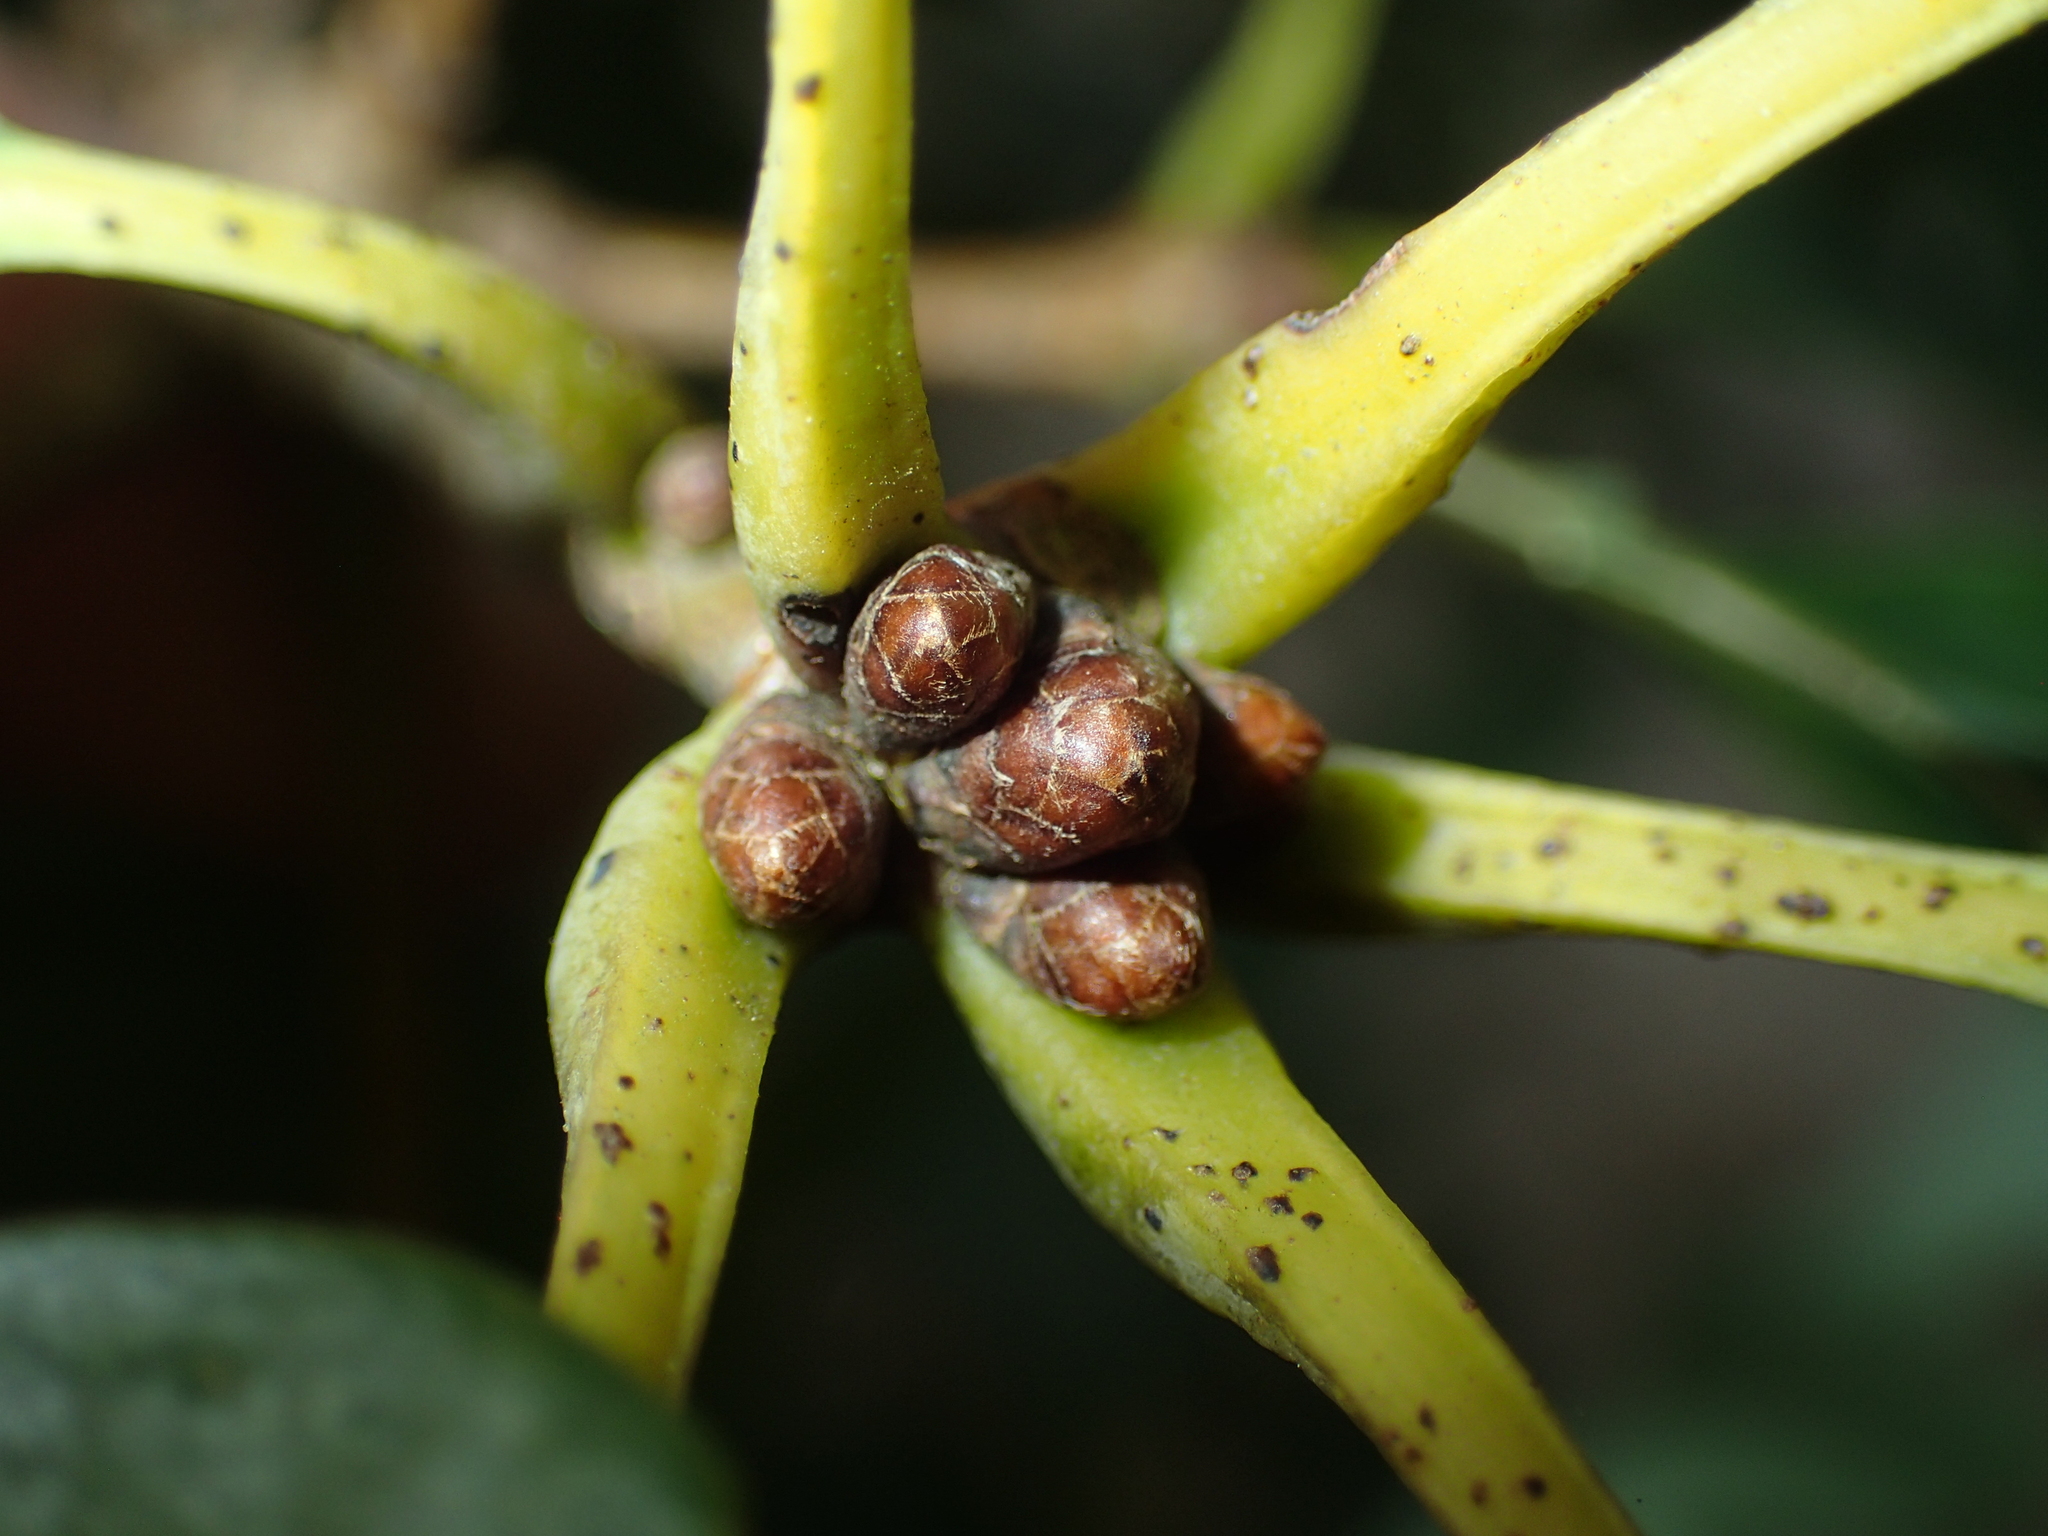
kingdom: Plantae
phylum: Tracheophyta
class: Magnoliopsida
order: Fagales
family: Fagaceae
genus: Quercus
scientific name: Quercus alba
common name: White oak
